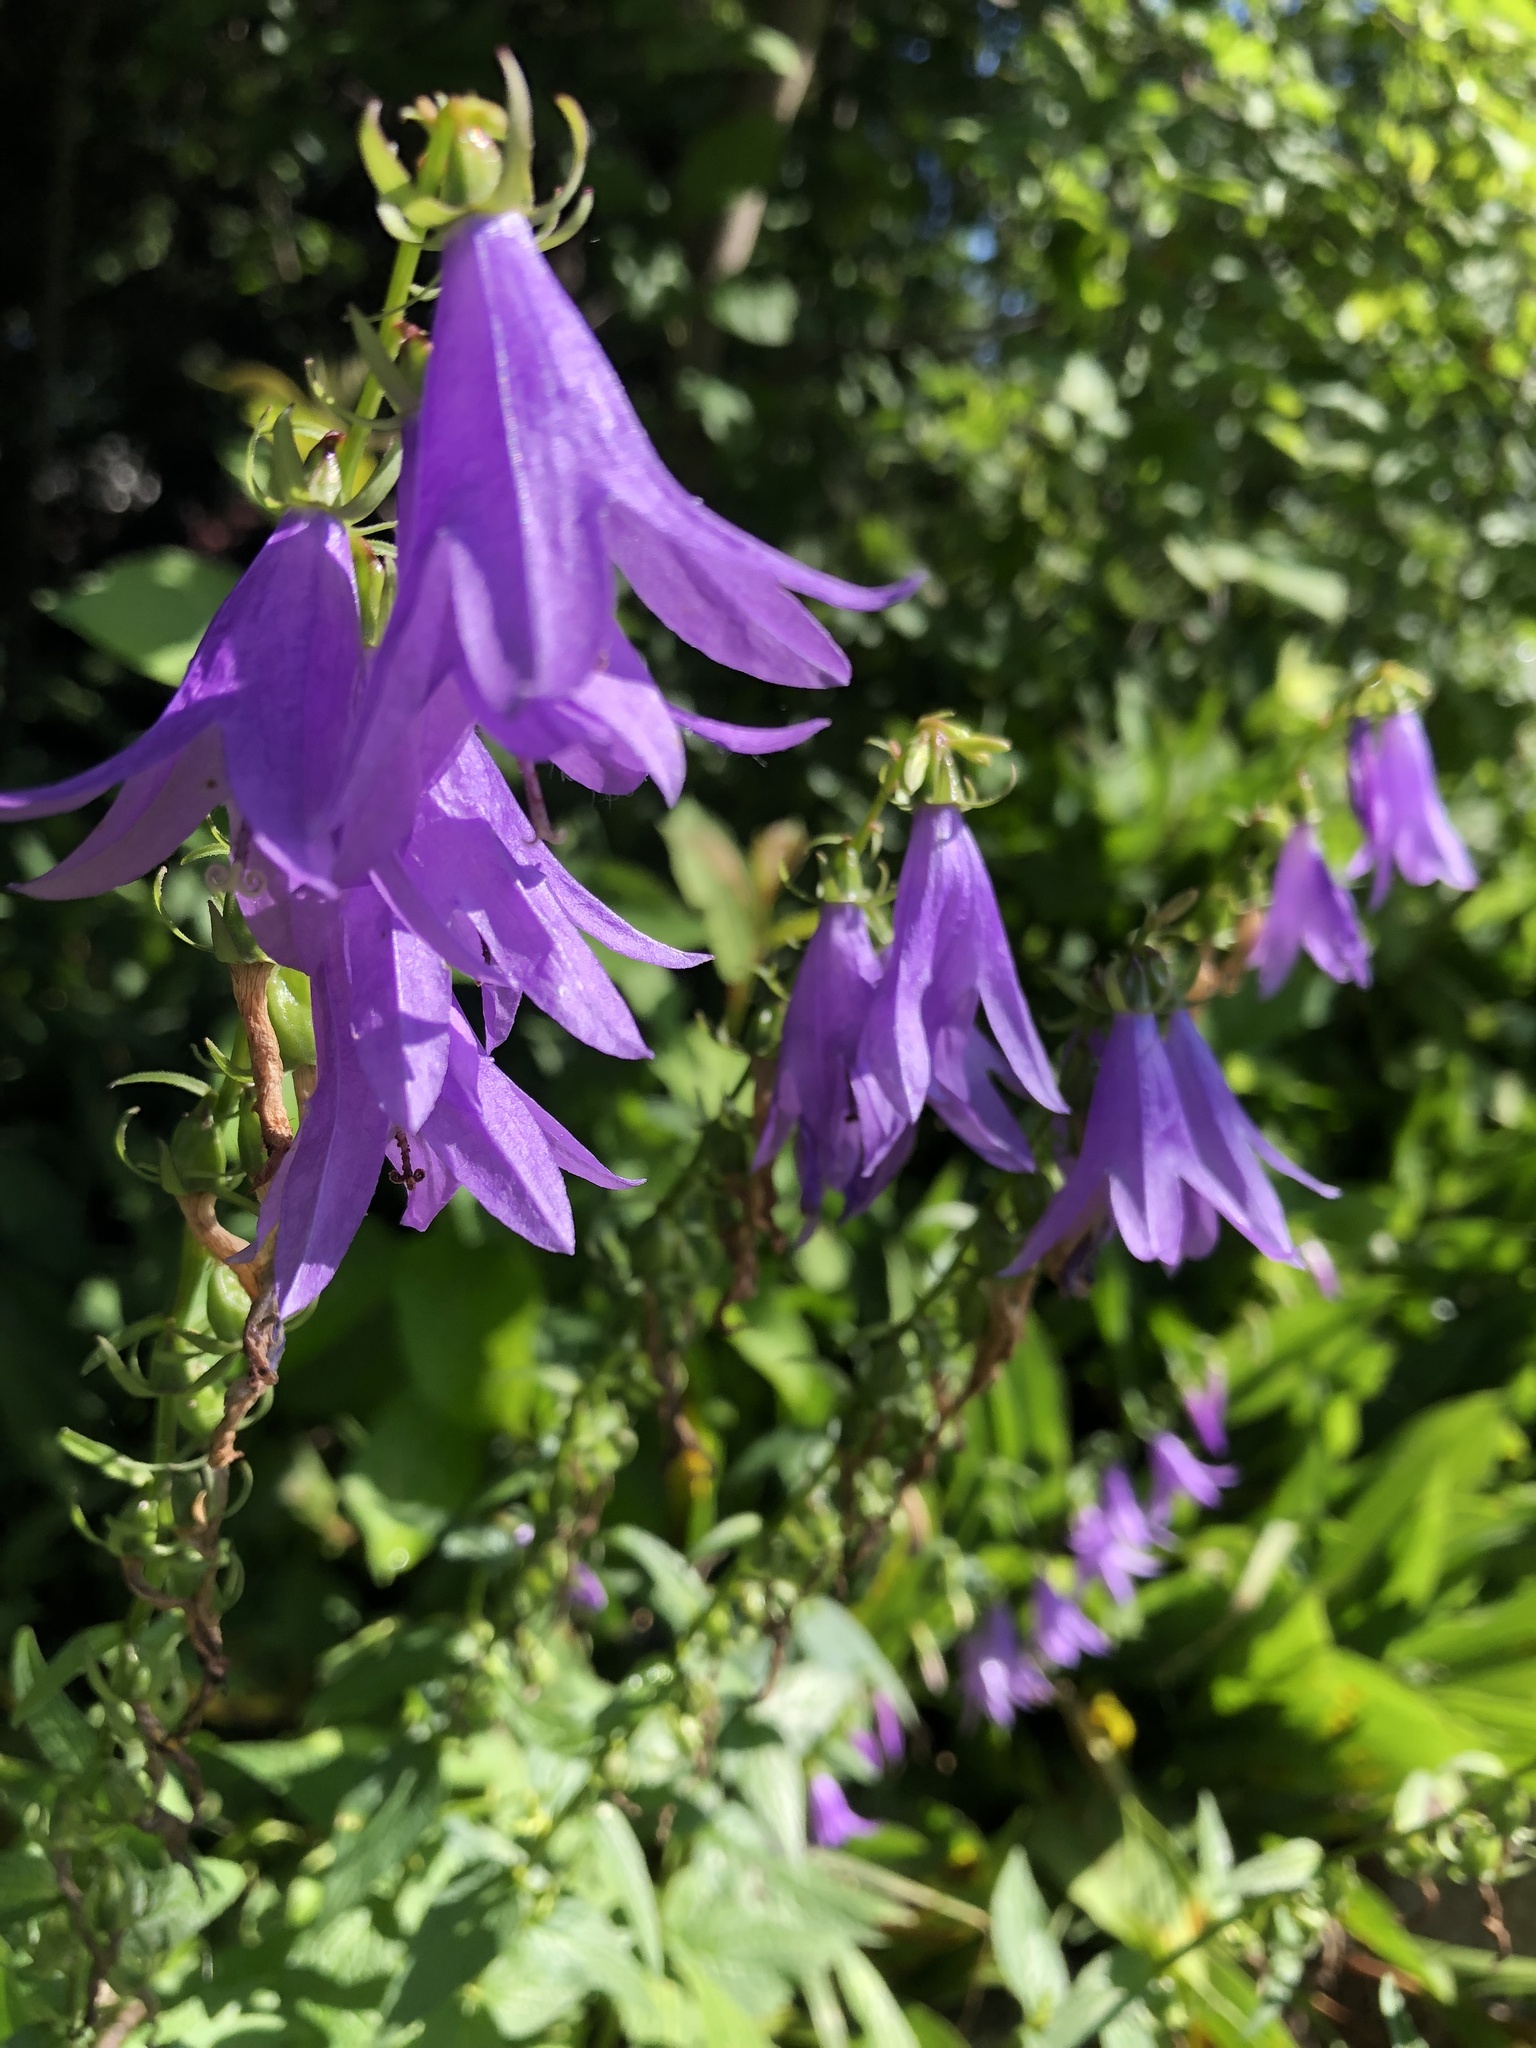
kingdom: Plantae
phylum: Tracheophyta
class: Magnoliopsida
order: Asterales
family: Campanulaceae
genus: Campanula
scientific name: Campanula rapunculoides
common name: Creeping bellflower
